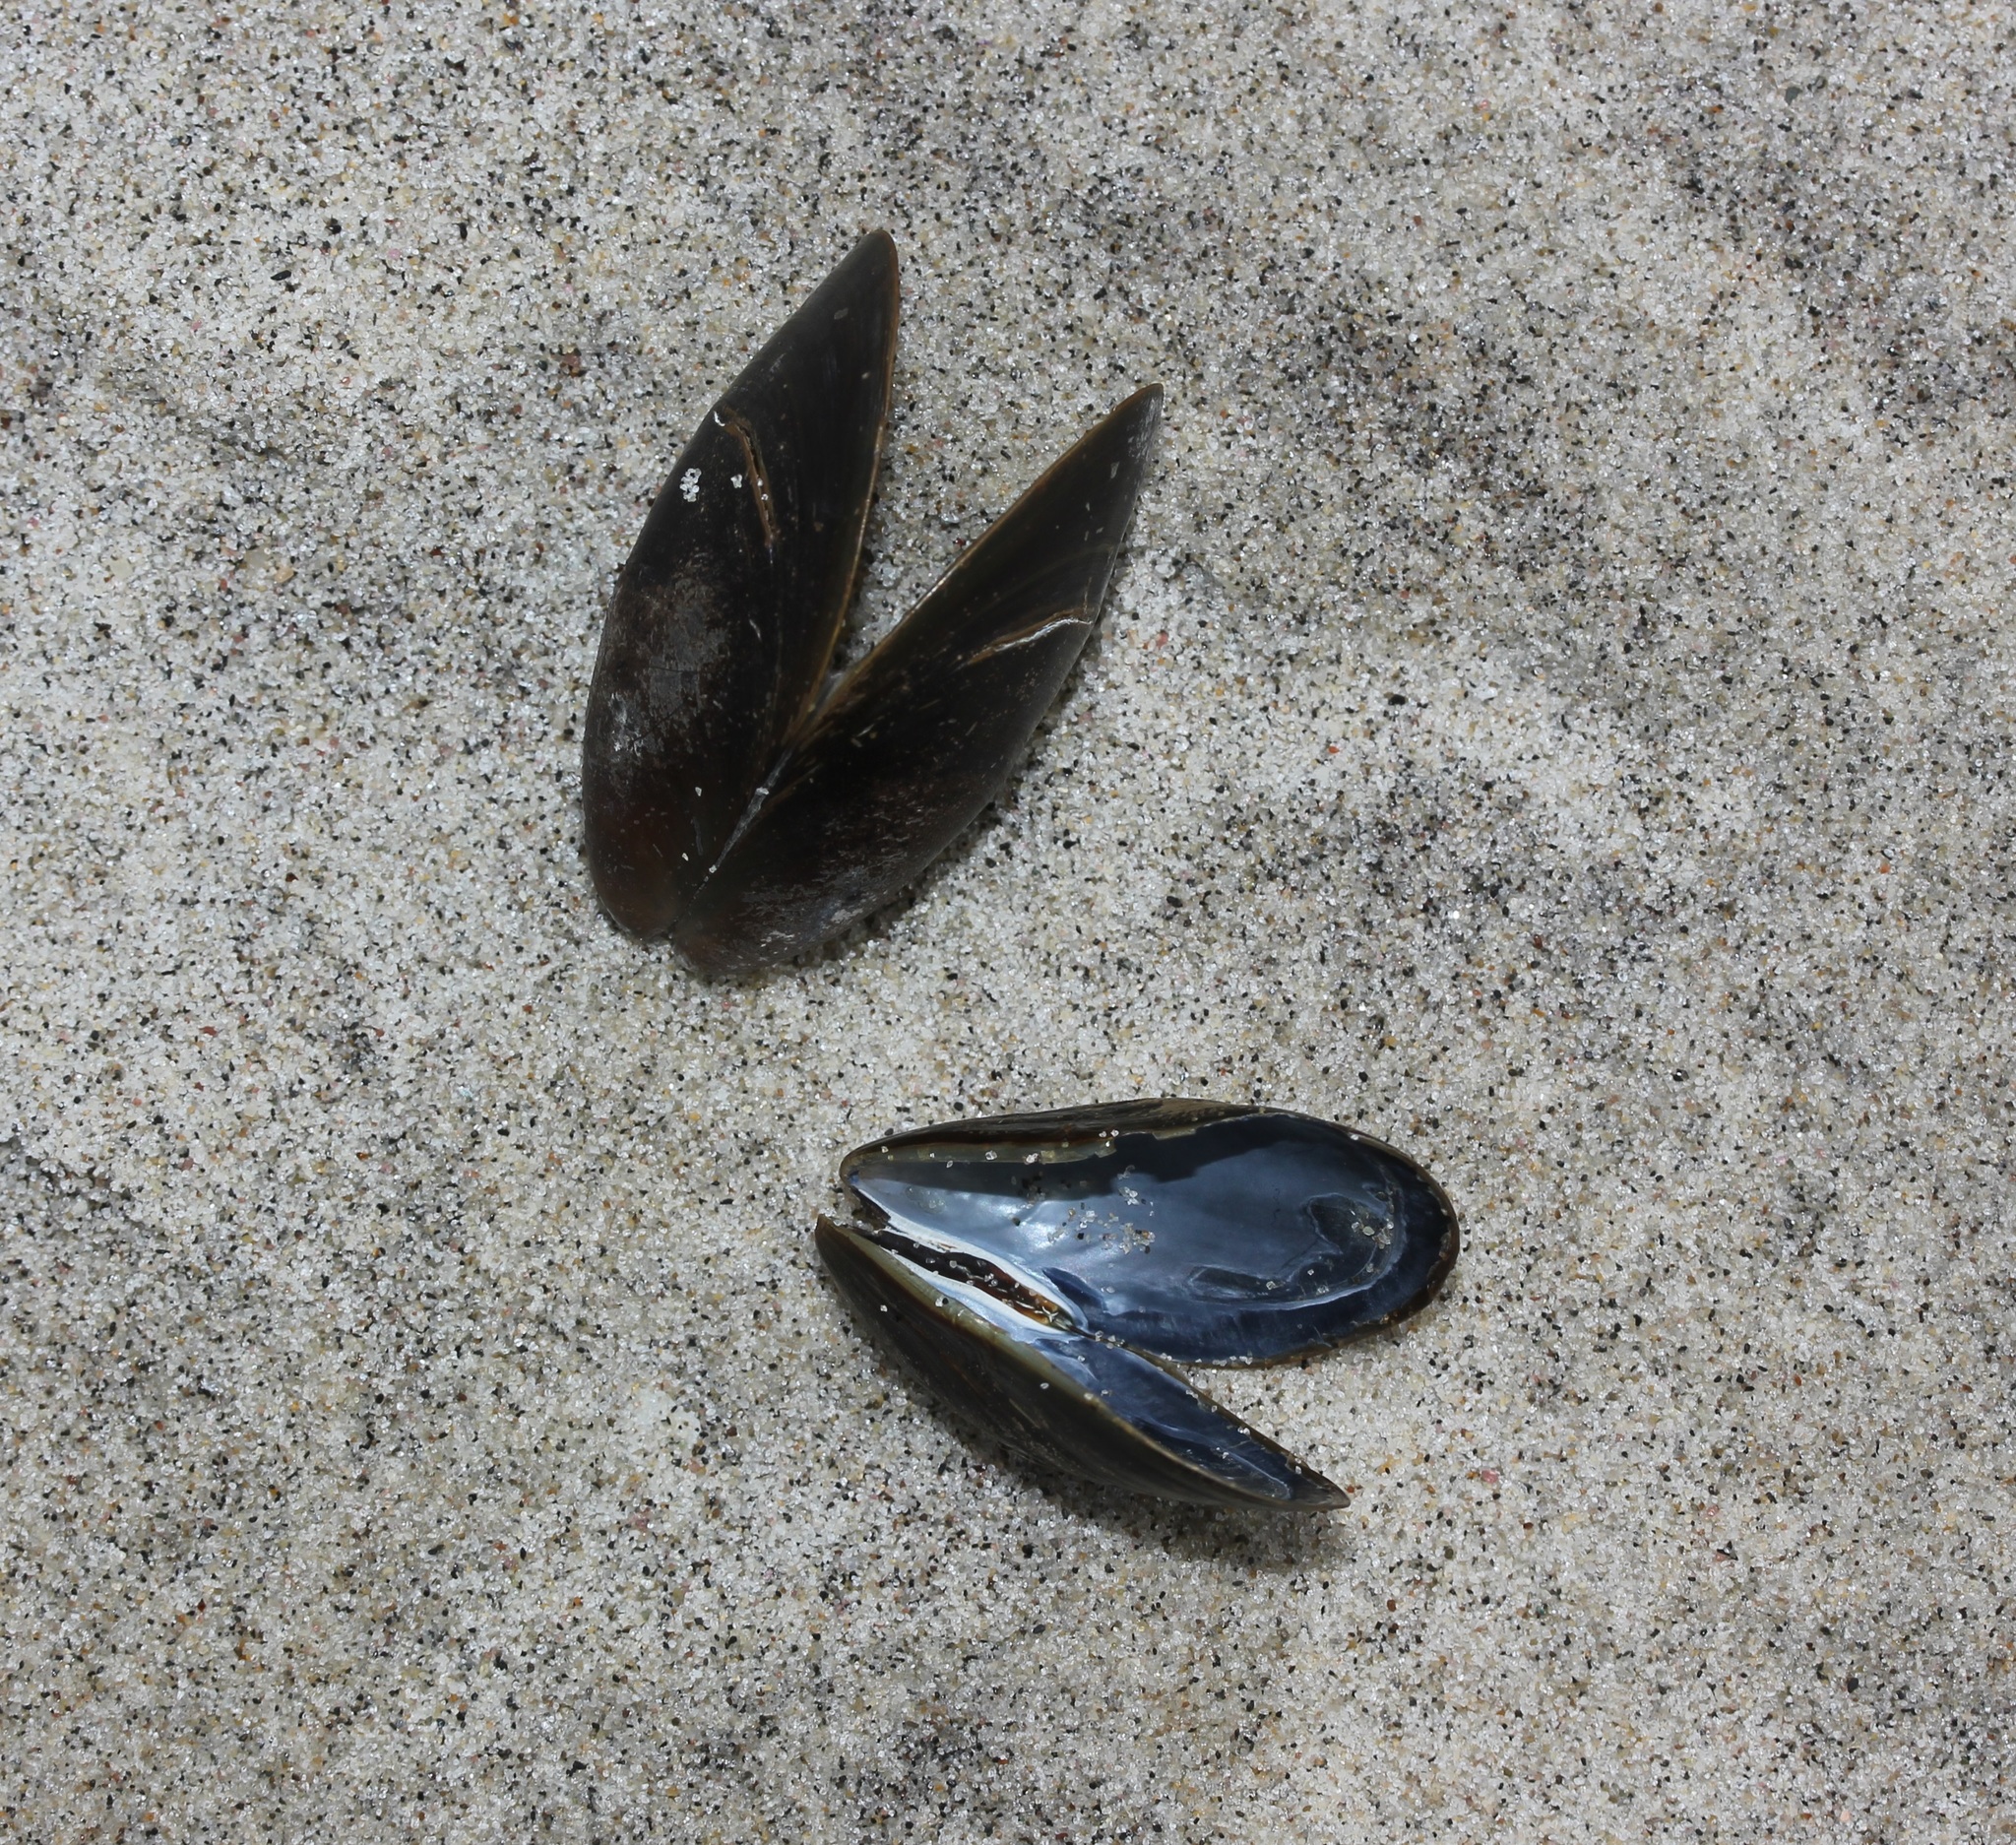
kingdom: Animalia
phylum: Mollusca
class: Bivalvia
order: Mytilida
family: Mytilidae
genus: Mytilus
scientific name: Mytilus edulis
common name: Blue mussel
